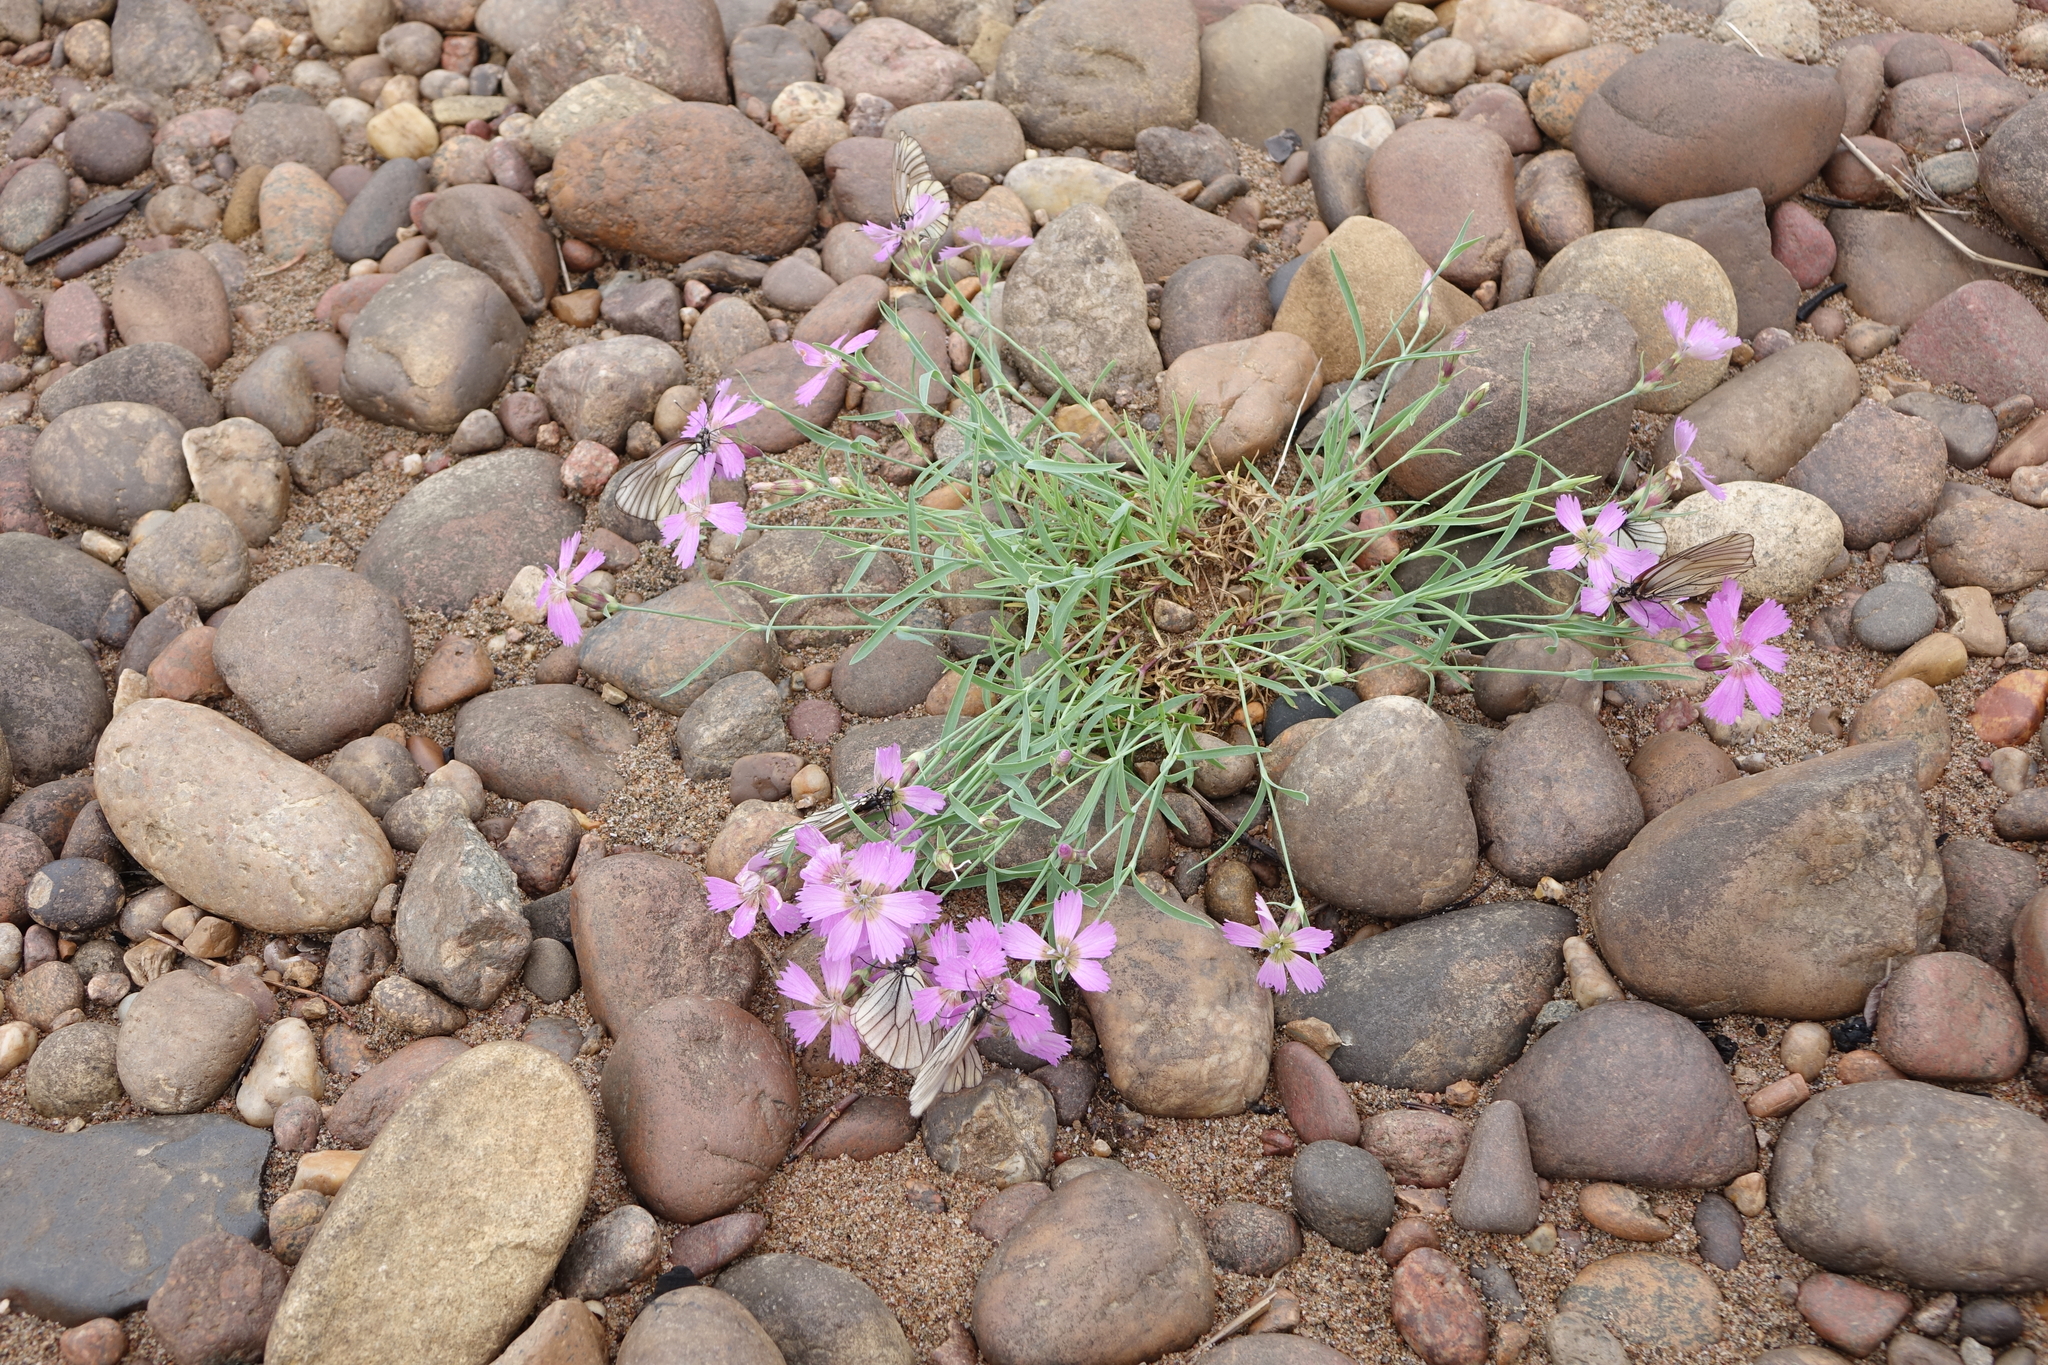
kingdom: Plantae
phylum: Tracheophyta
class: Magnoliopsida
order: Caryophyllales
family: Caryophyllaceae
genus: Dianthus
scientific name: Dianthus repens
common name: Northern pink
